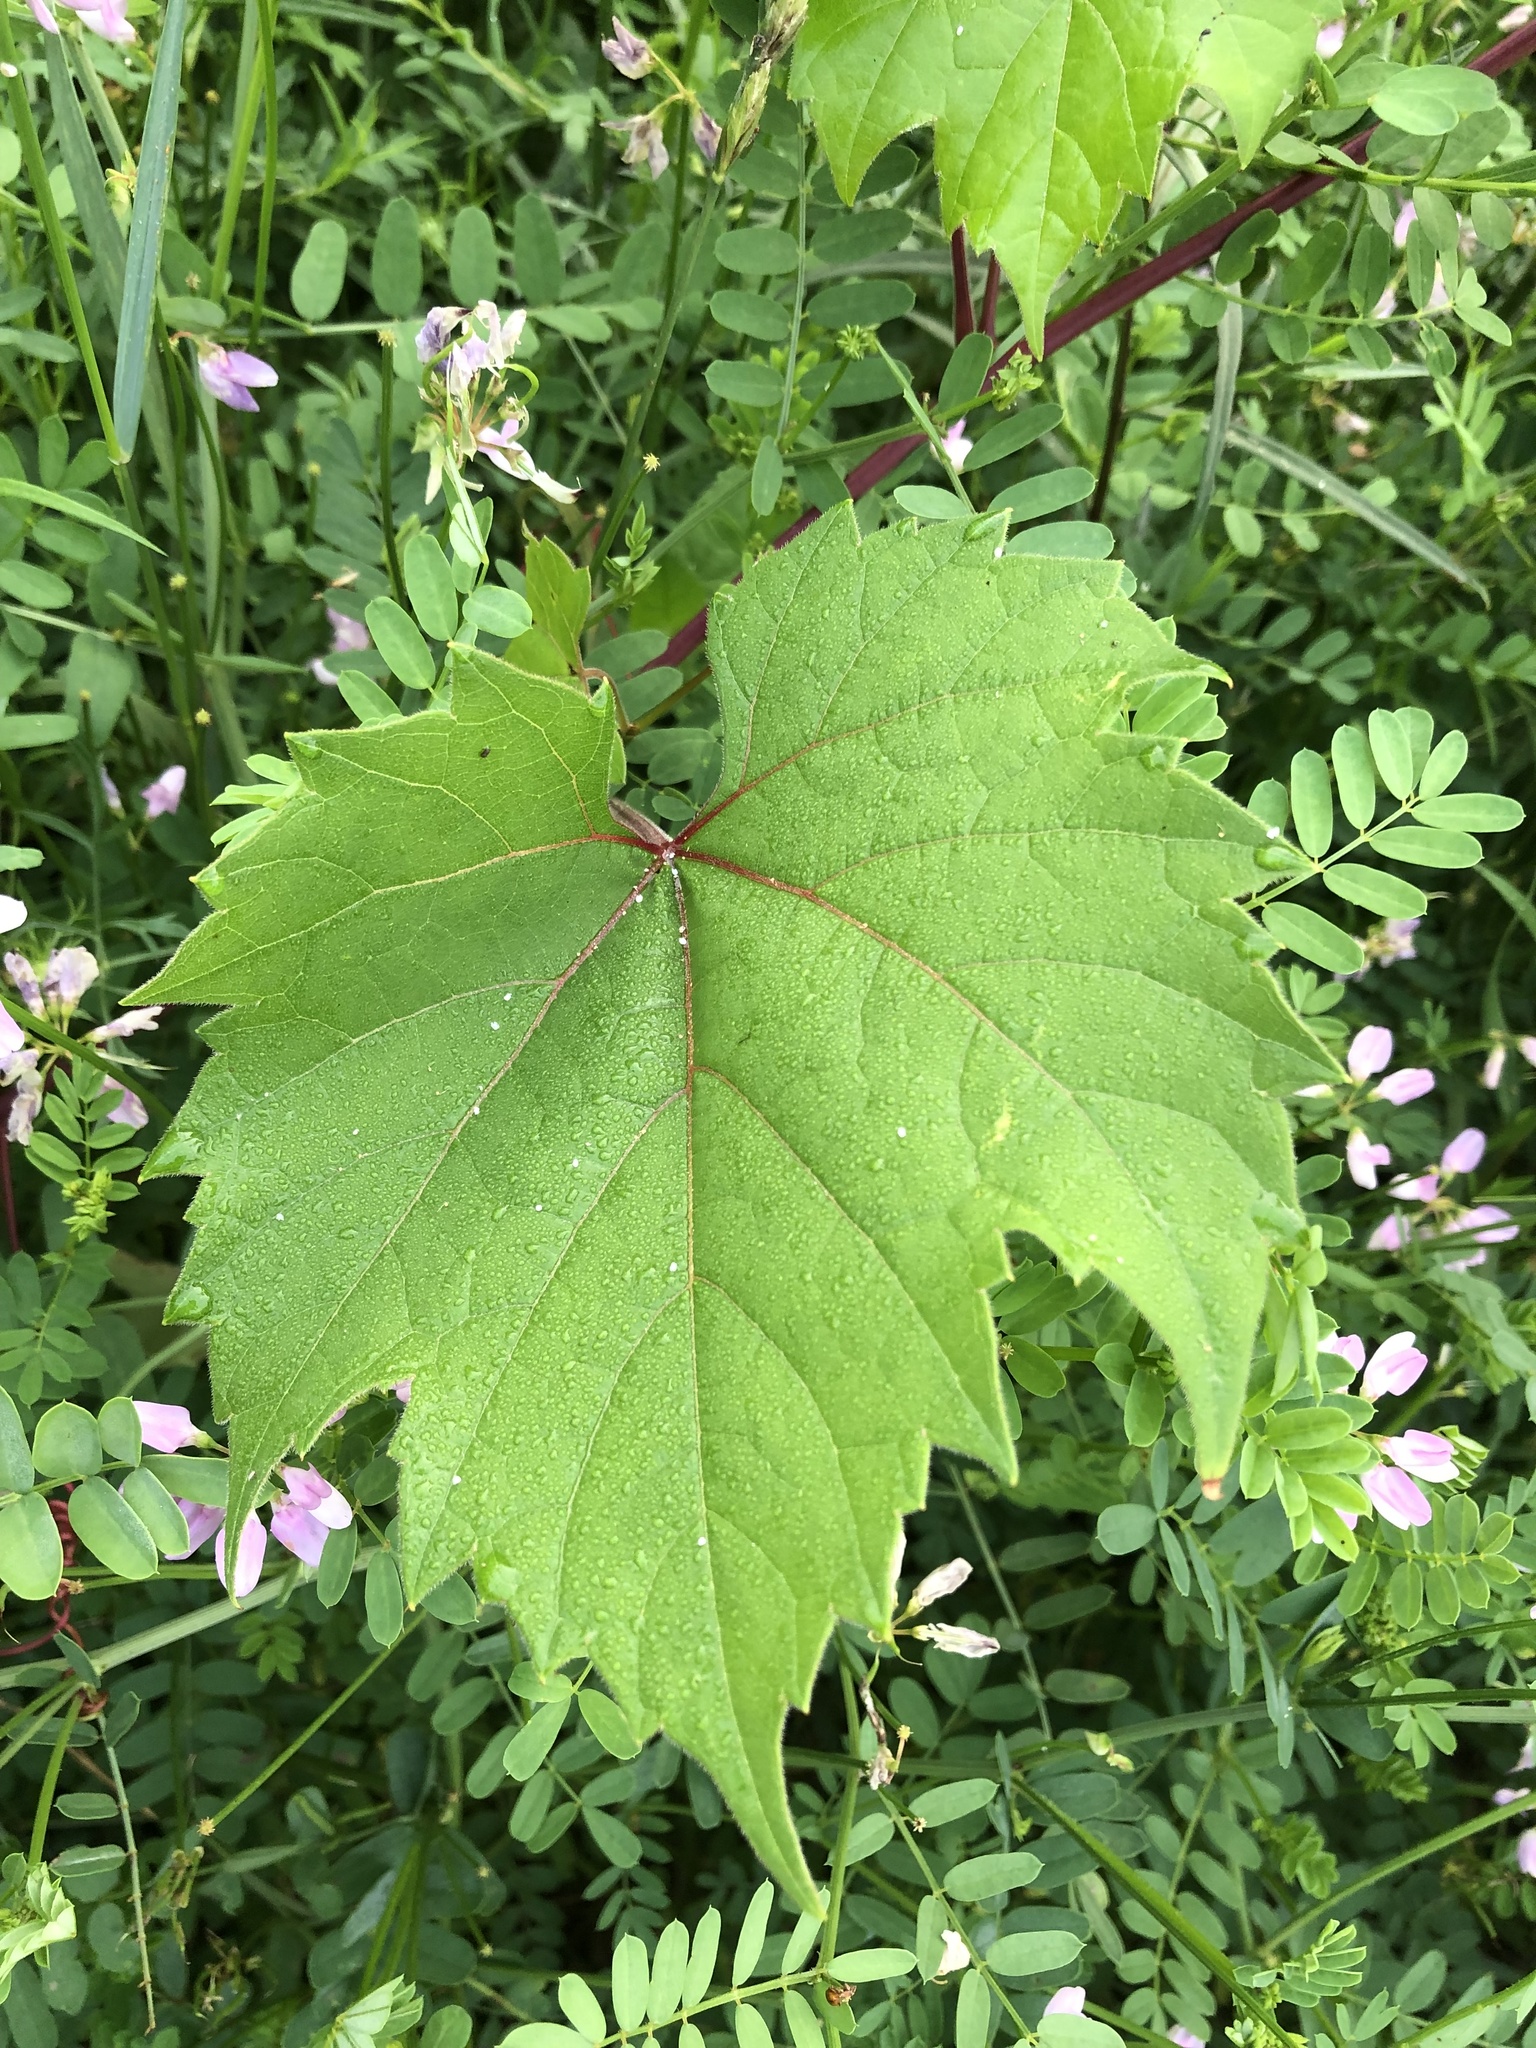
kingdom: Plantae
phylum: Tracheophyta
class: Magnoliopsida
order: Vitales
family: Vitaceae
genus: Vitis
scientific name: Vitis riparia
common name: Frost grape
